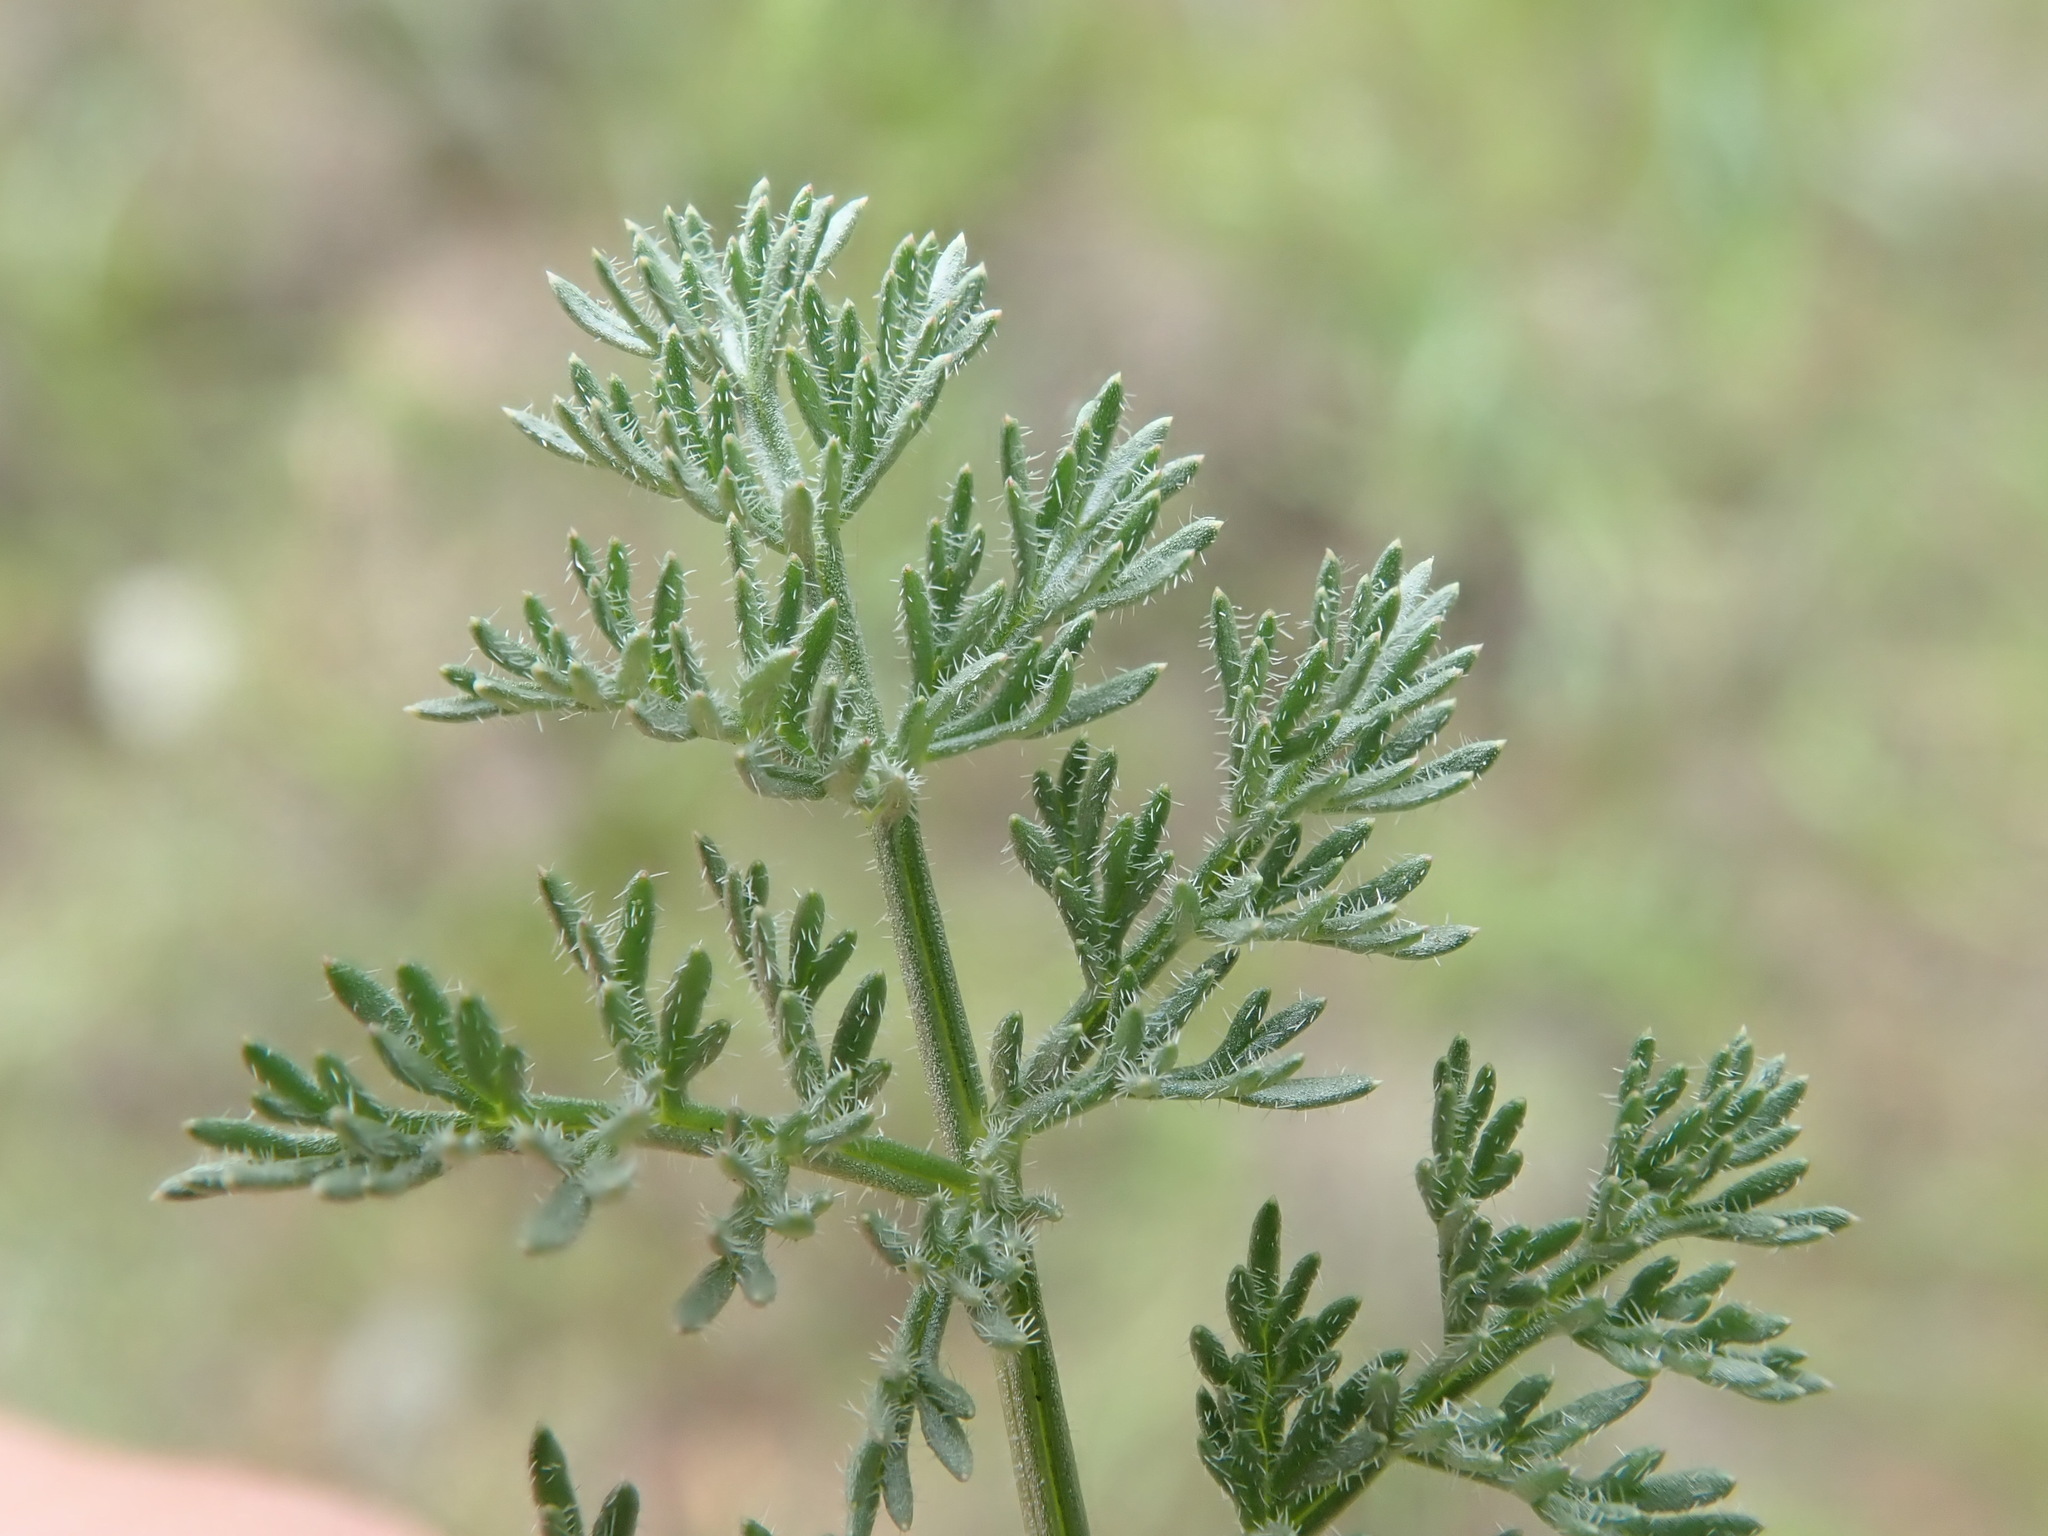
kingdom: Plantae
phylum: Tracheophyta
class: Magnoliopsida
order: Apiales
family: Apiaceae
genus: Lomatium
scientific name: Lomatium dasycarpum
